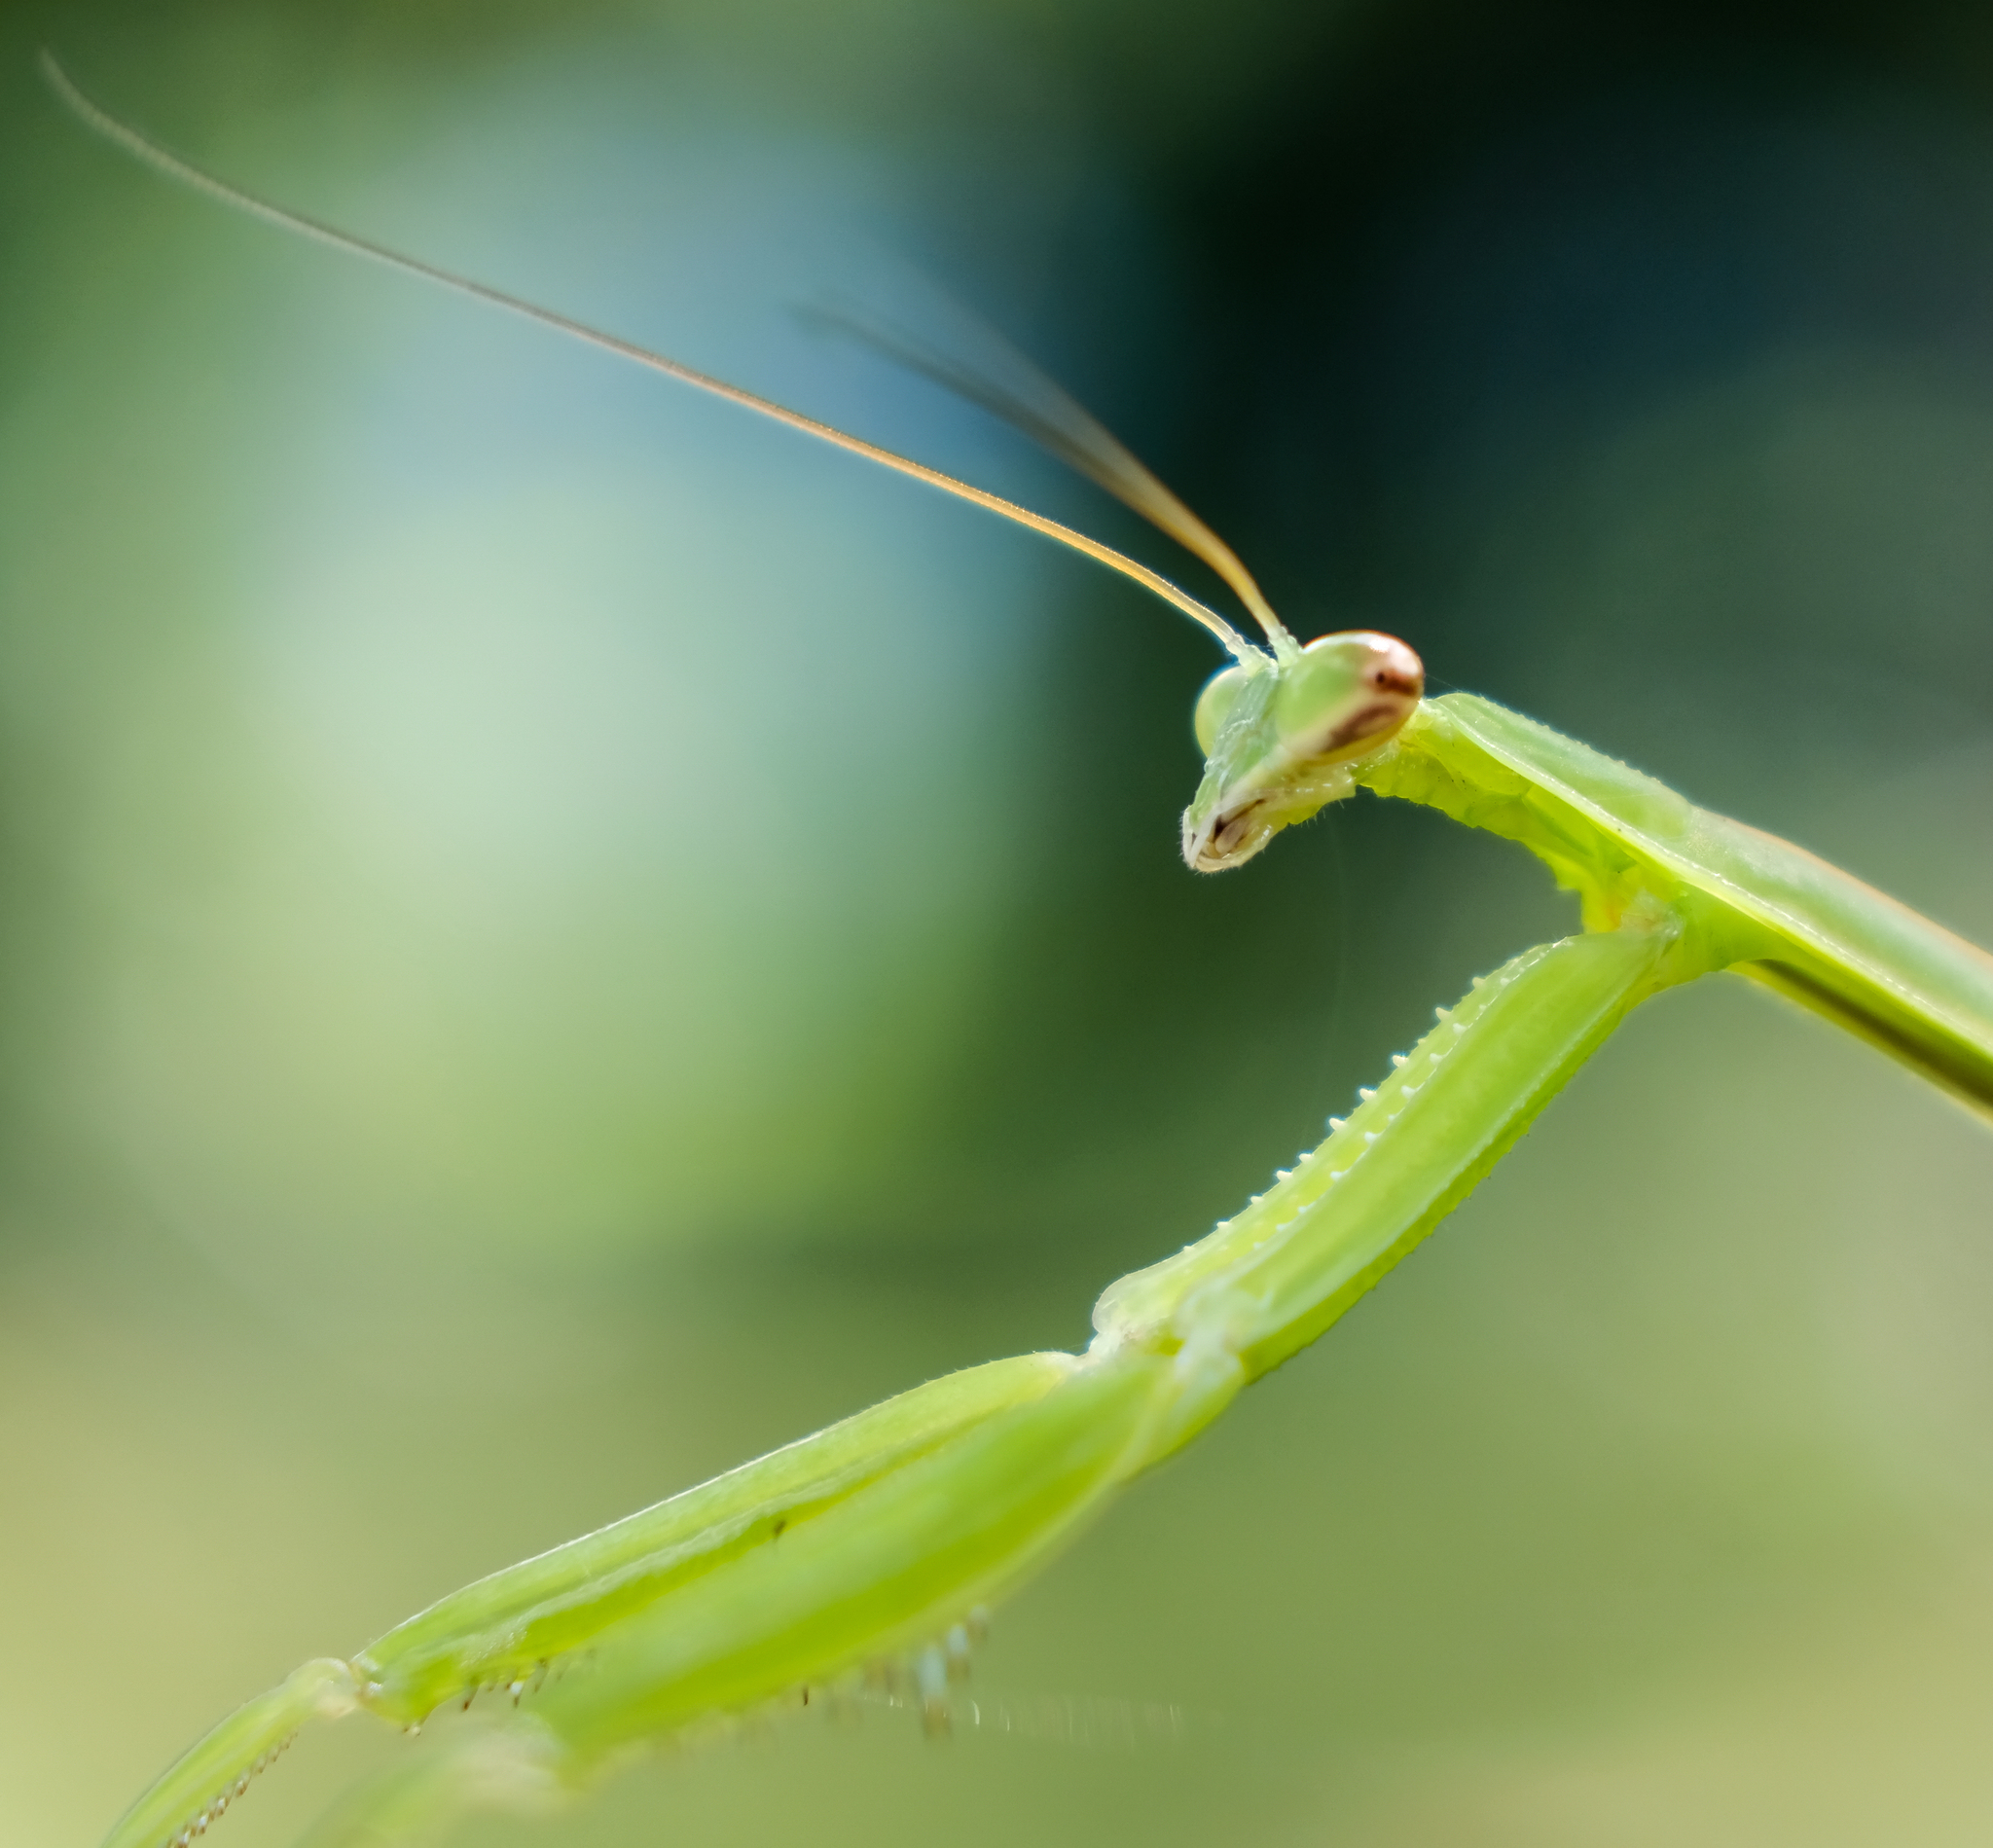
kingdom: Animalia
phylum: Arthropoda
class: Insecta
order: Mantodea
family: Mantidae
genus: Tenodera
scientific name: Tenodera angustipennis
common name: Asian mantis
